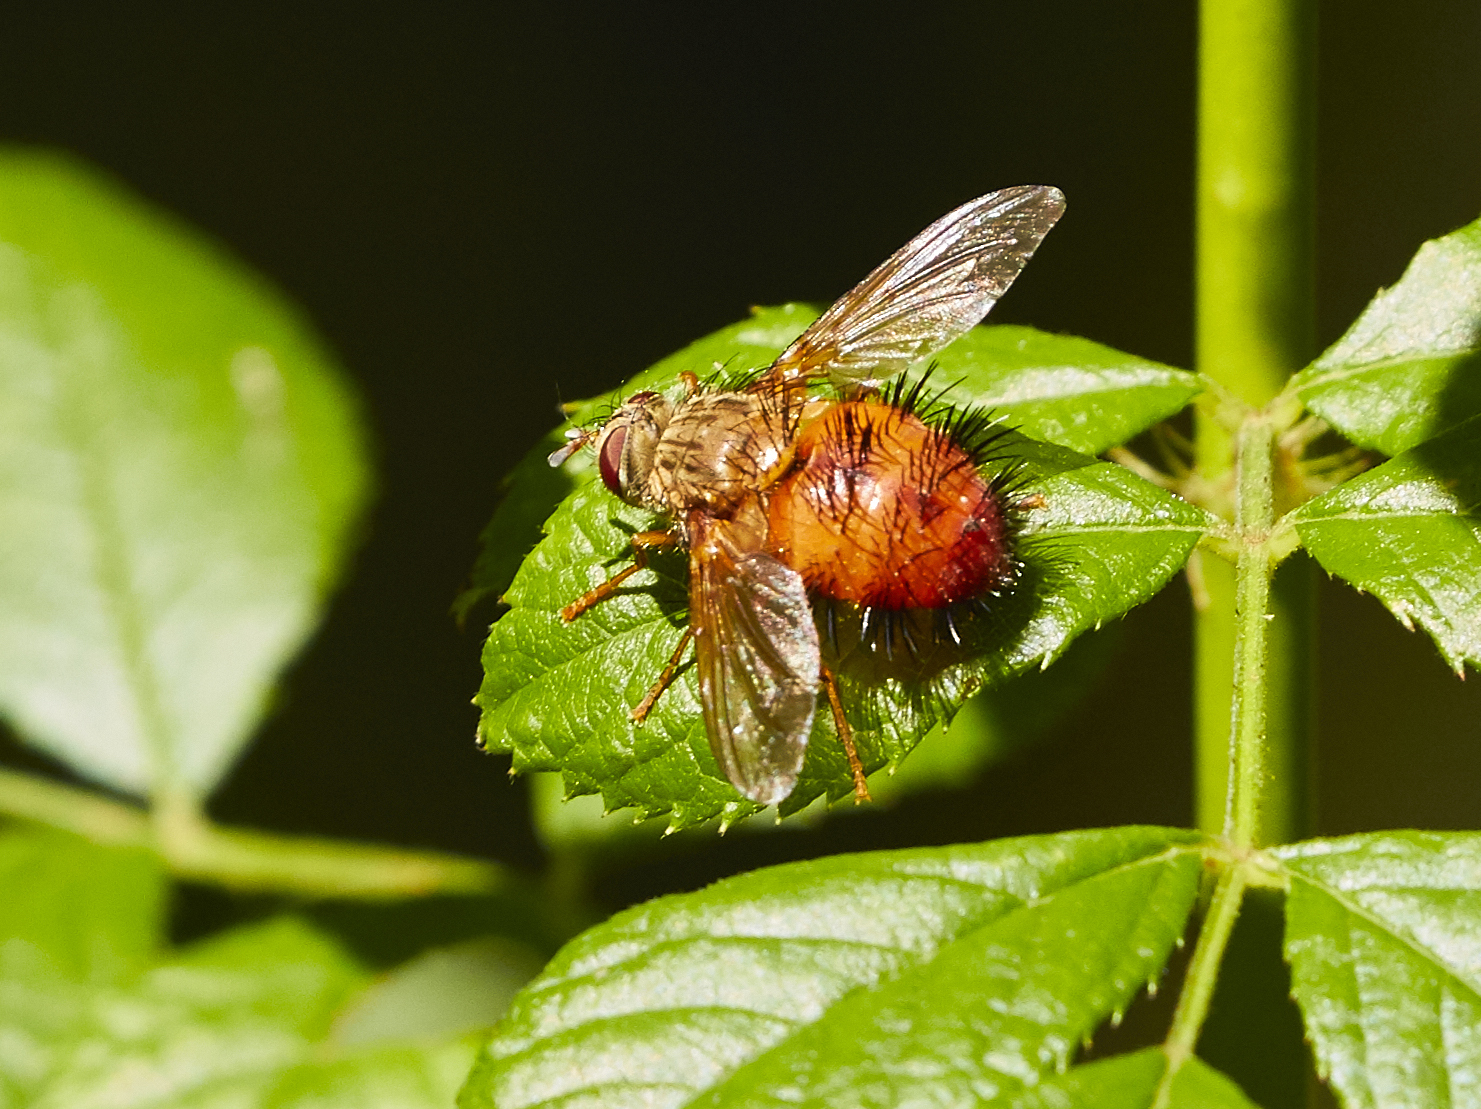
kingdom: Animalia
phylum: Arthropoda
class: Insecta
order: Diptera
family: Tachinidae
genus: Hystricia
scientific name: Hystricia abrupta
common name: Tomato bristle fly
